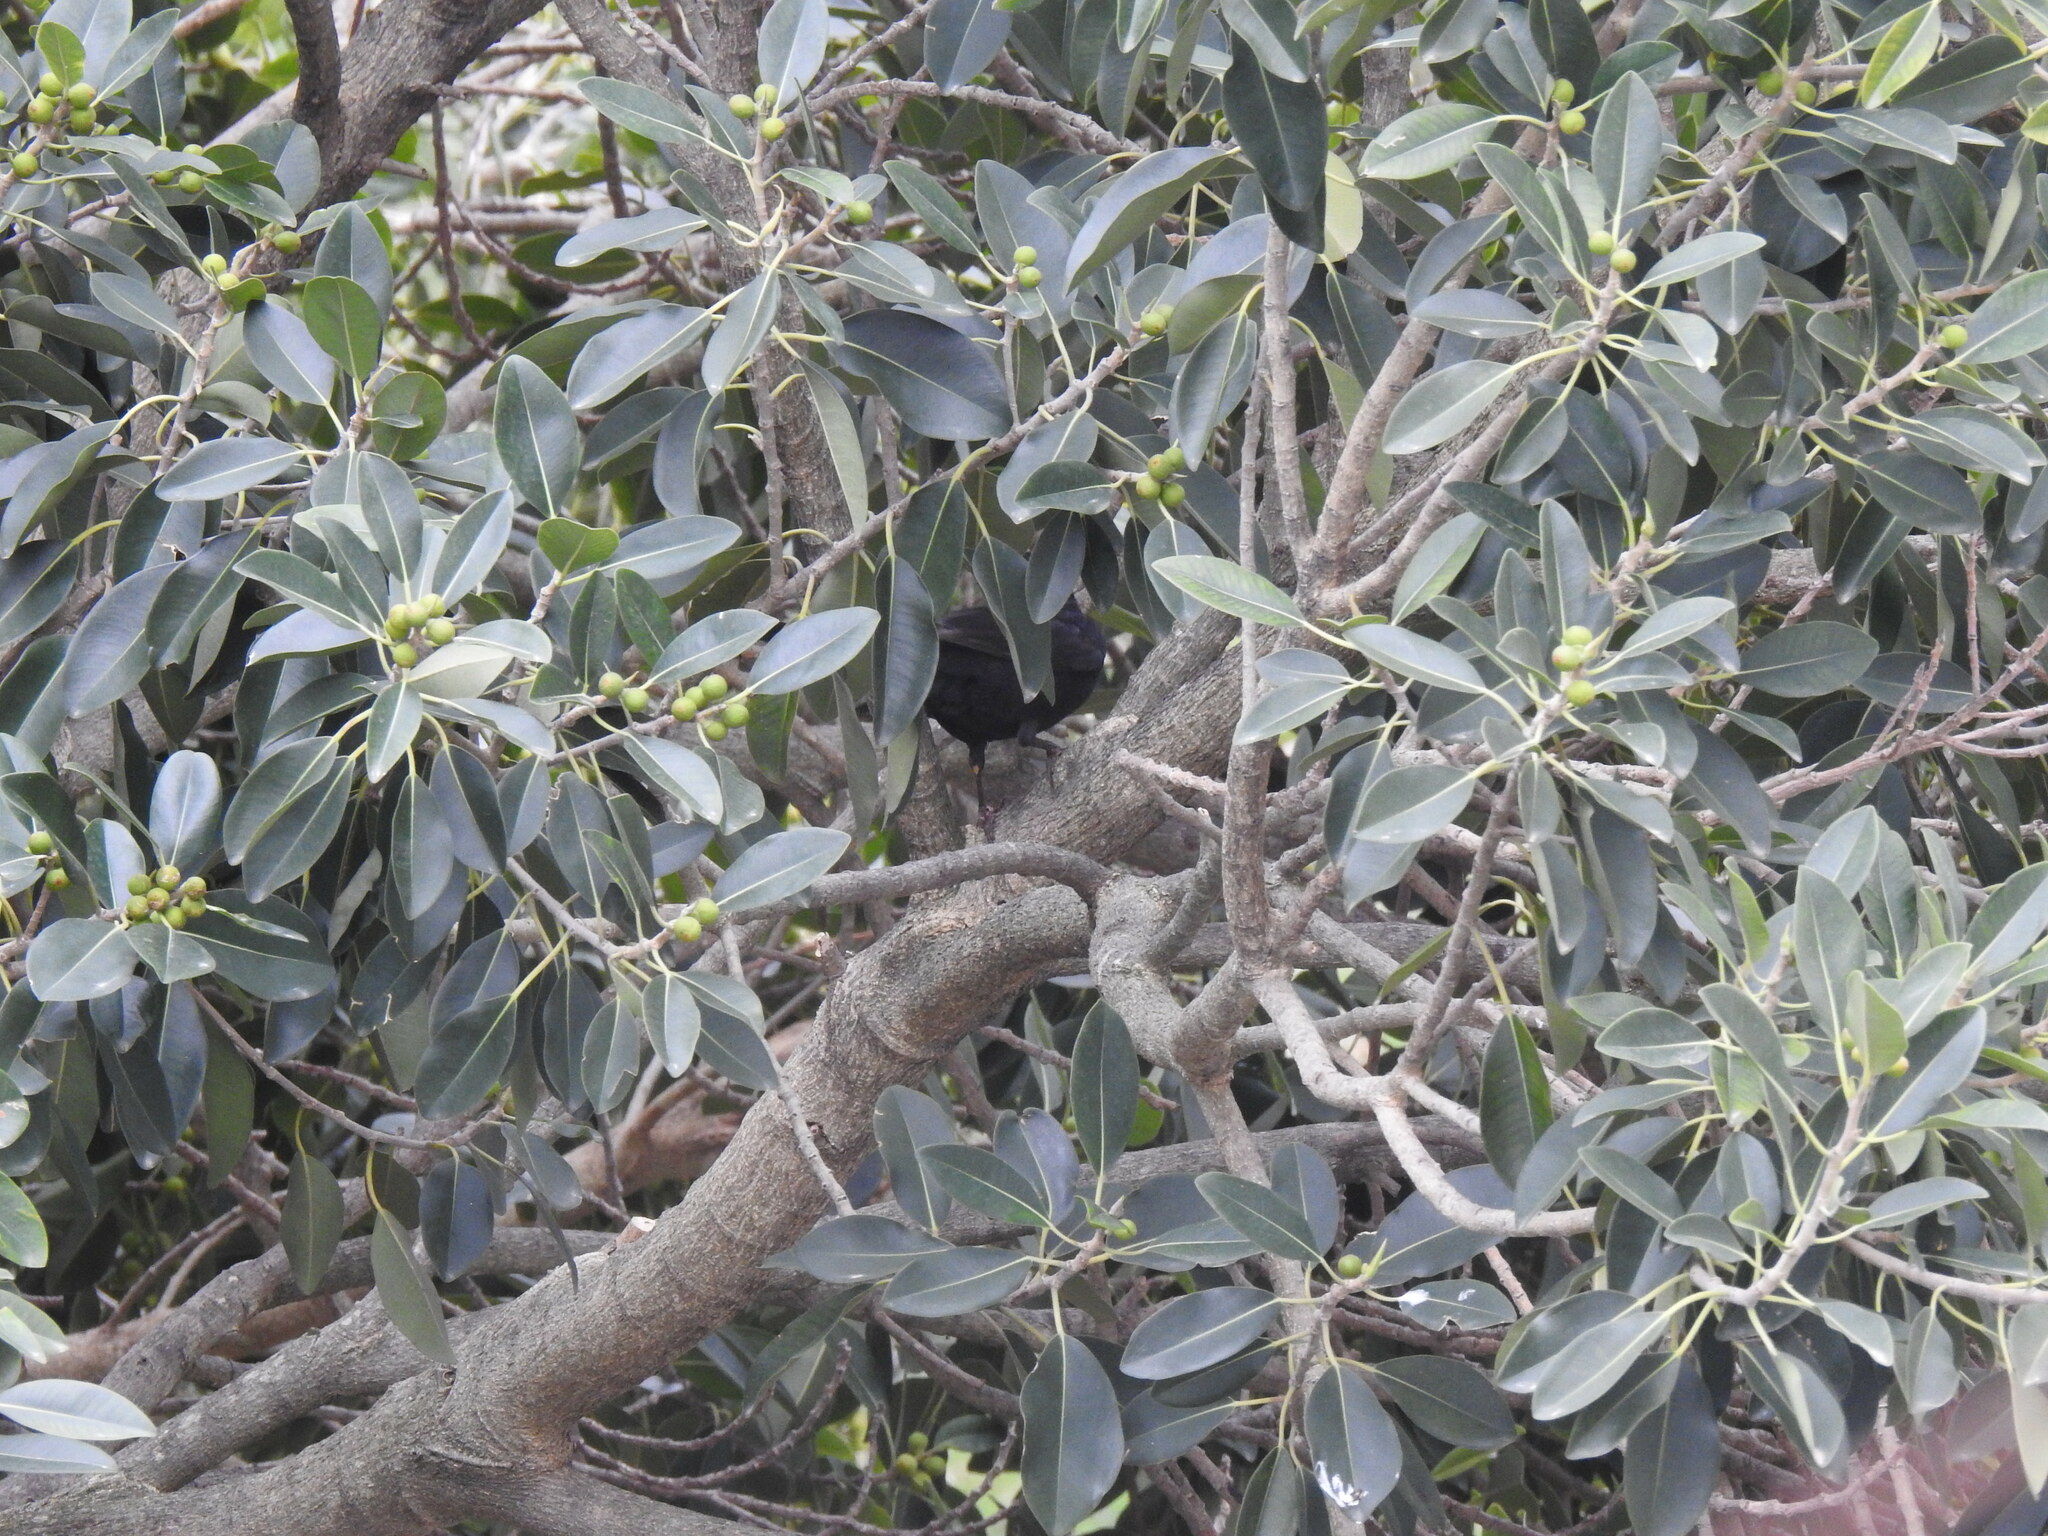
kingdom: Animalia
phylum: Chordata
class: Aves
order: Passeriformes
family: Turdidae
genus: Turdus
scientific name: Turdus merula
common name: Common blackbird
